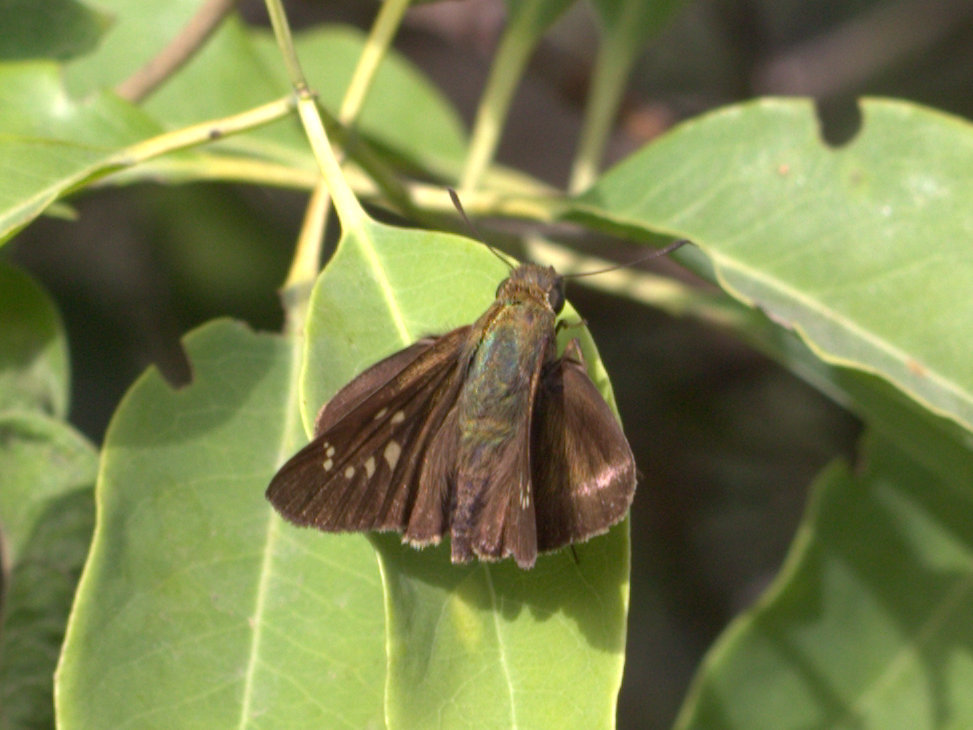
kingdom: Animalia
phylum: Arthropoda
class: Insecta
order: Lepidoptera
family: Hesperiidae
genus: Caltoris
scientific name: Caltoris canaraica
